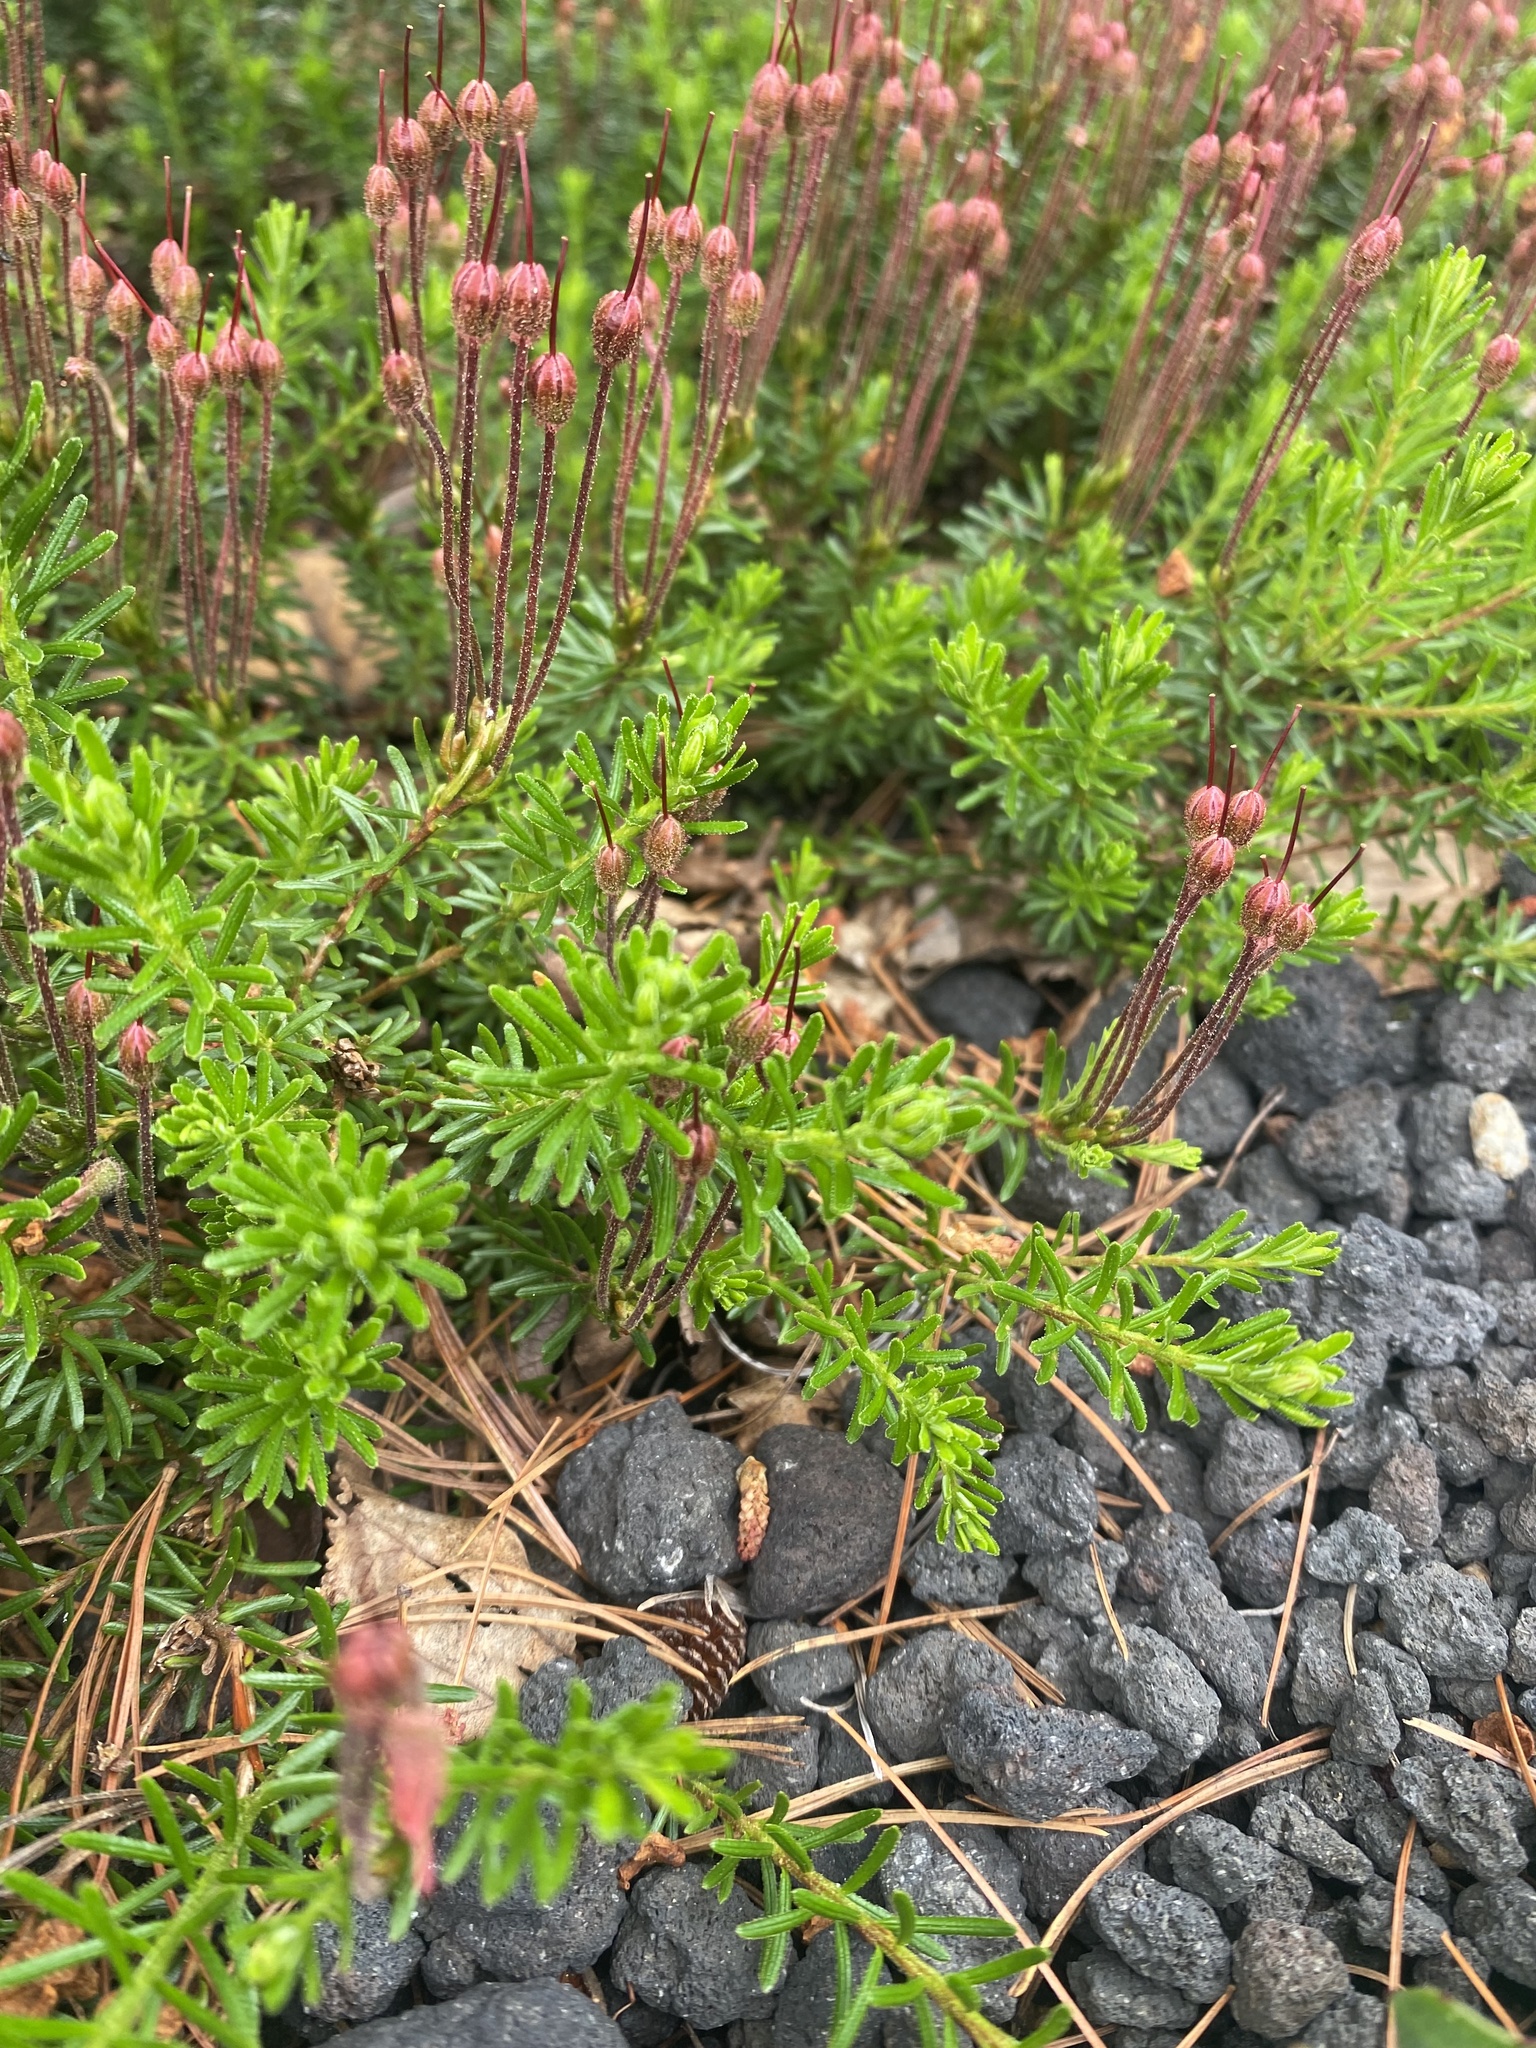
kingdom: Plantae
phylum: Tracheophyta
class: Magnoliopsida
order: Ericales
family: Ericaceae
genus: Phyllodoce
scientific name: Phyllodoce caerulea
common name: Blue heath
